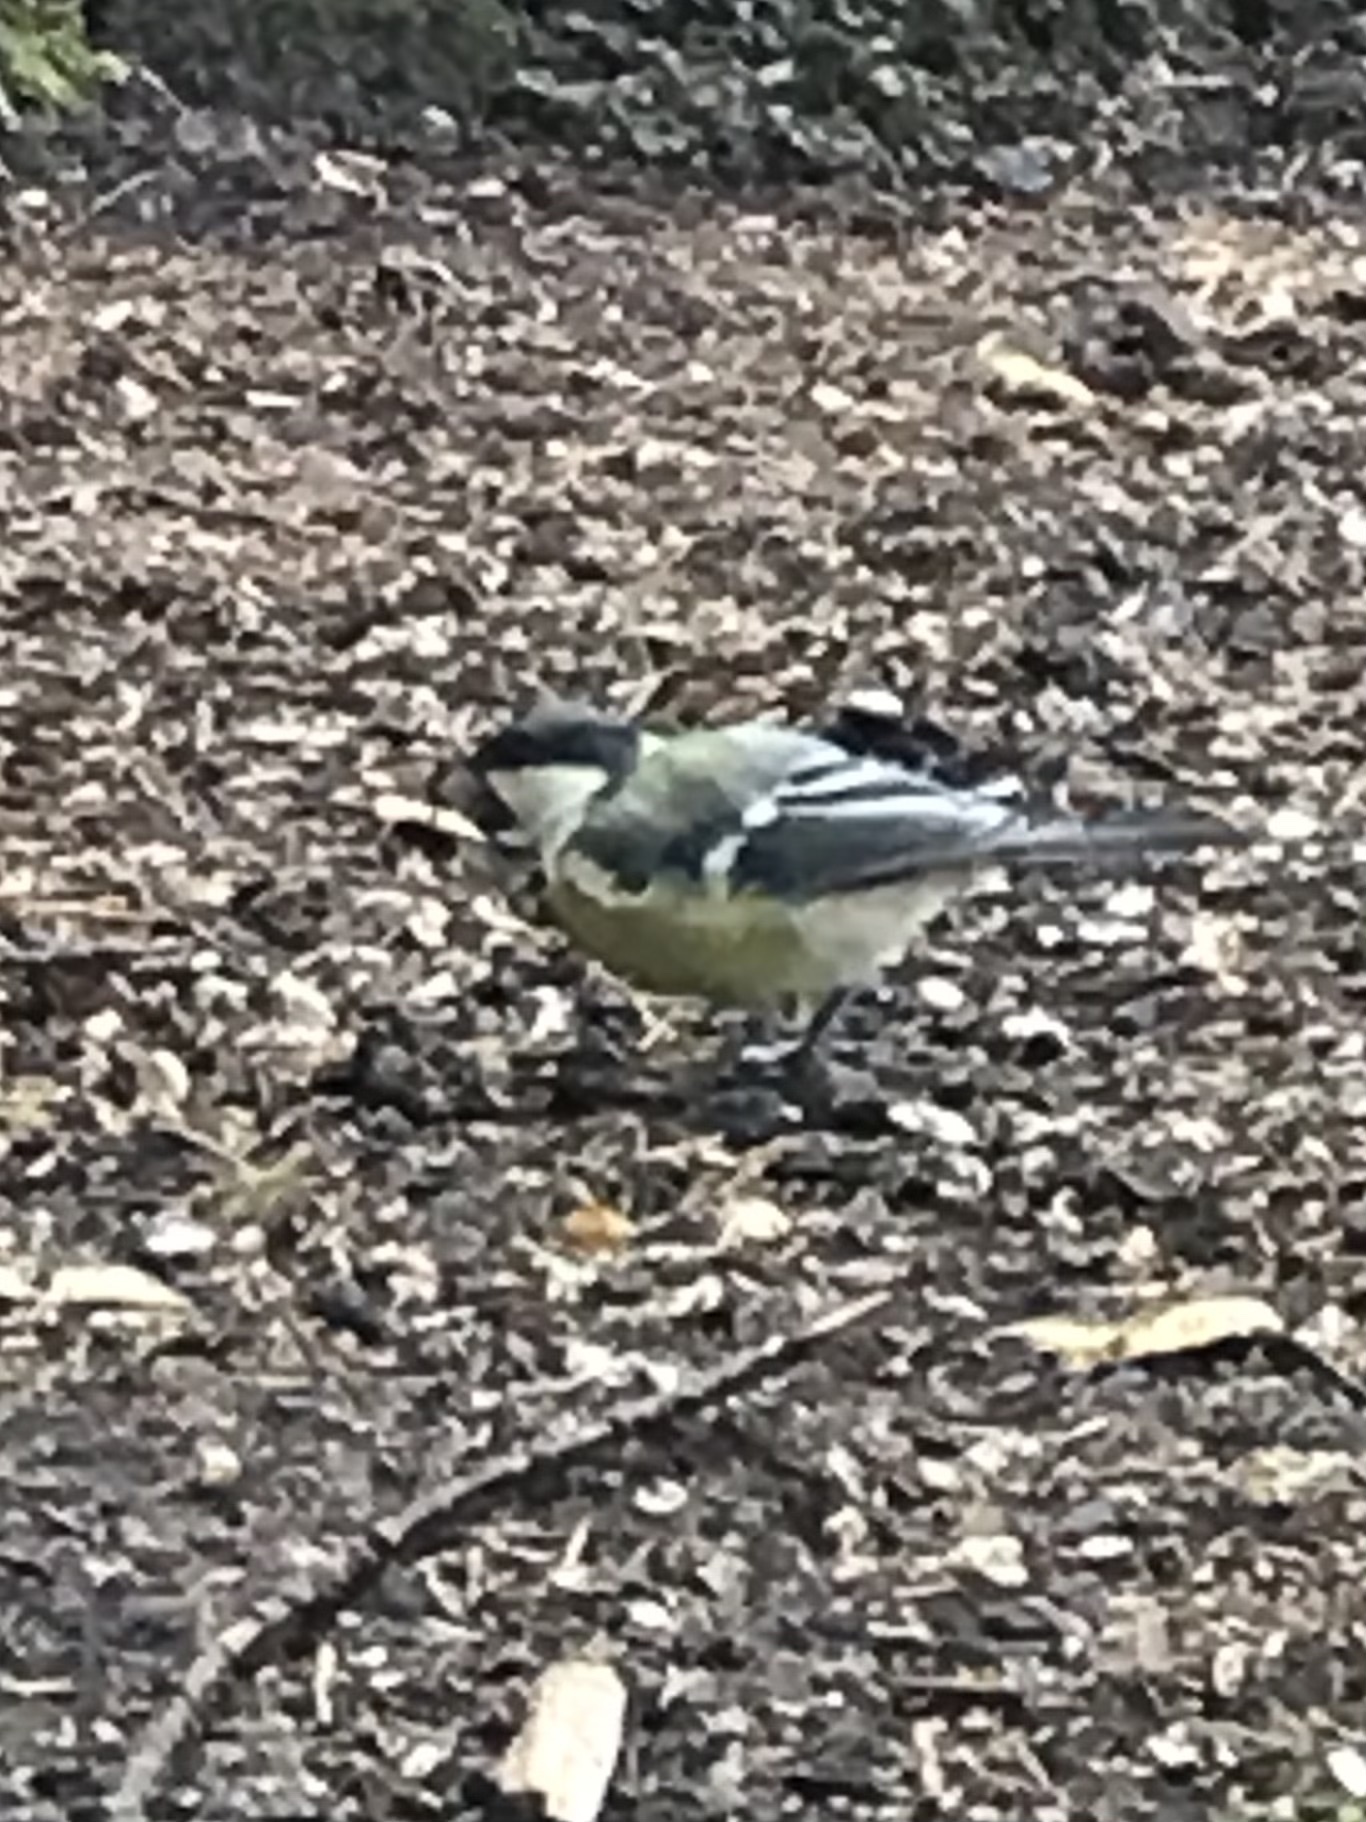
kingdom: Animalia
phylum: Chordata
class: Aves
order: Passeriformes
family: Paridae
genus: Parus
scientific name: Parus major
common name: Great tit
